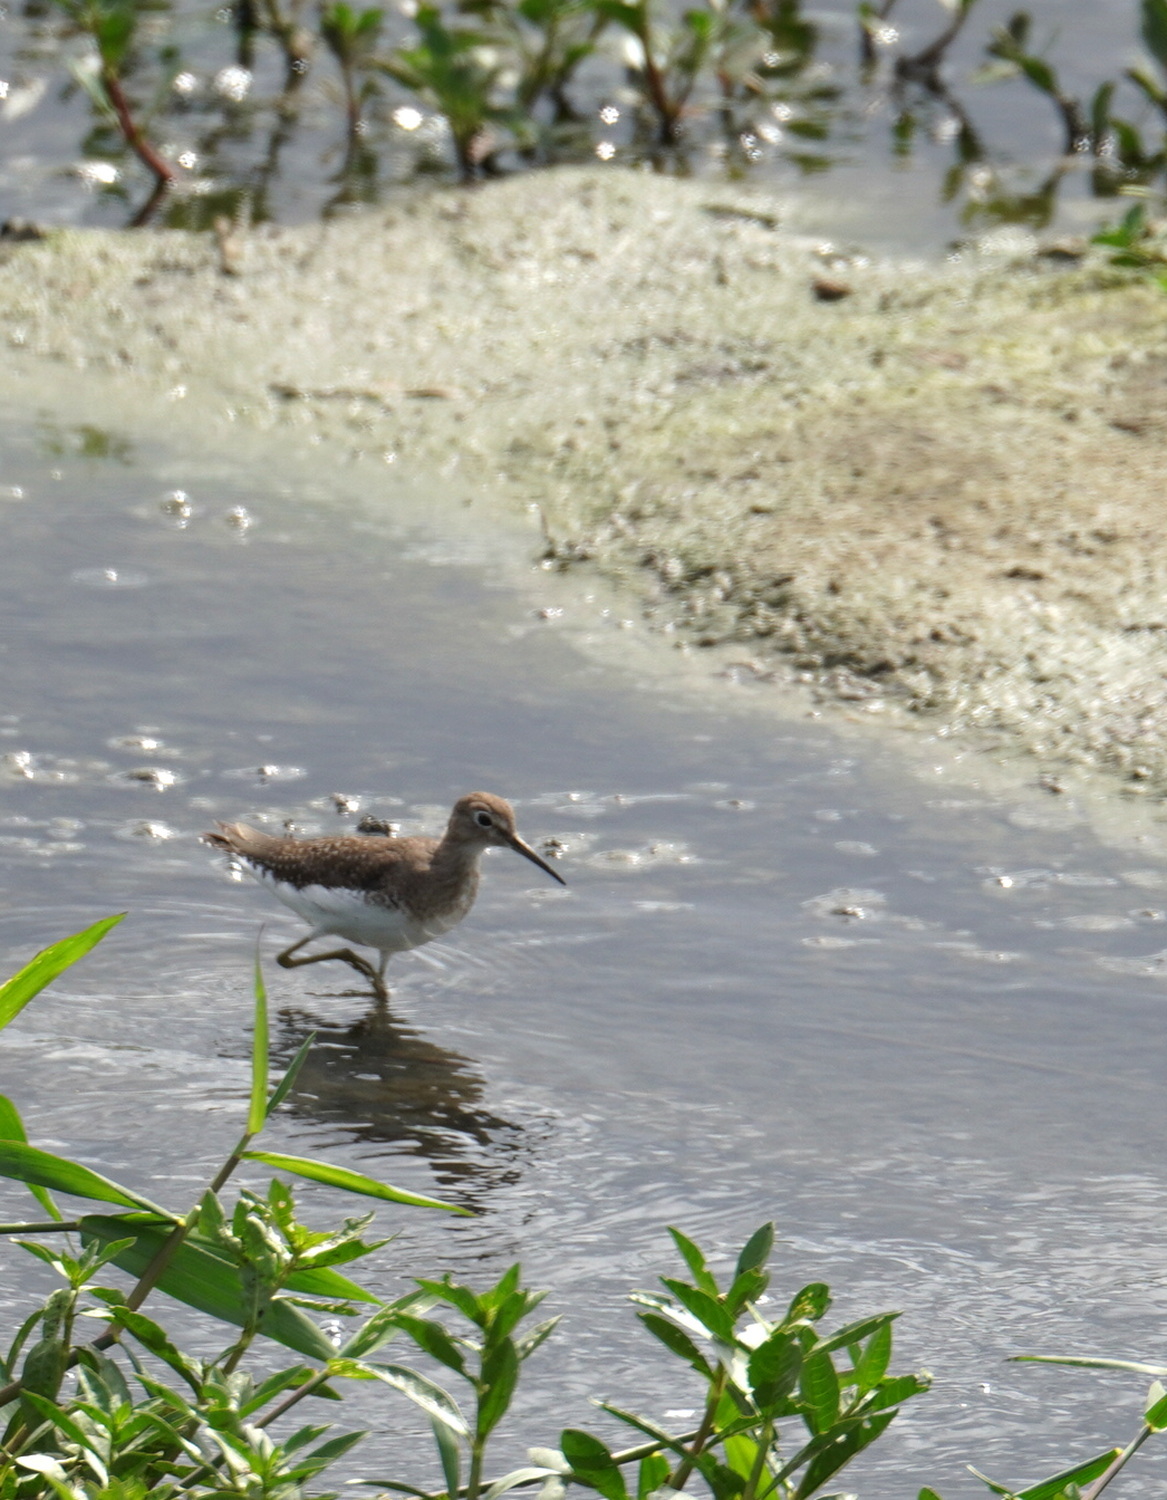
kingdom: Animalia
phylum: Chordata
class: Aves
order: Charadriiformes
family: Scolopacidae
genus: Actitis
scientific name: Actitis macularius
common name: Spotted sandpiper
